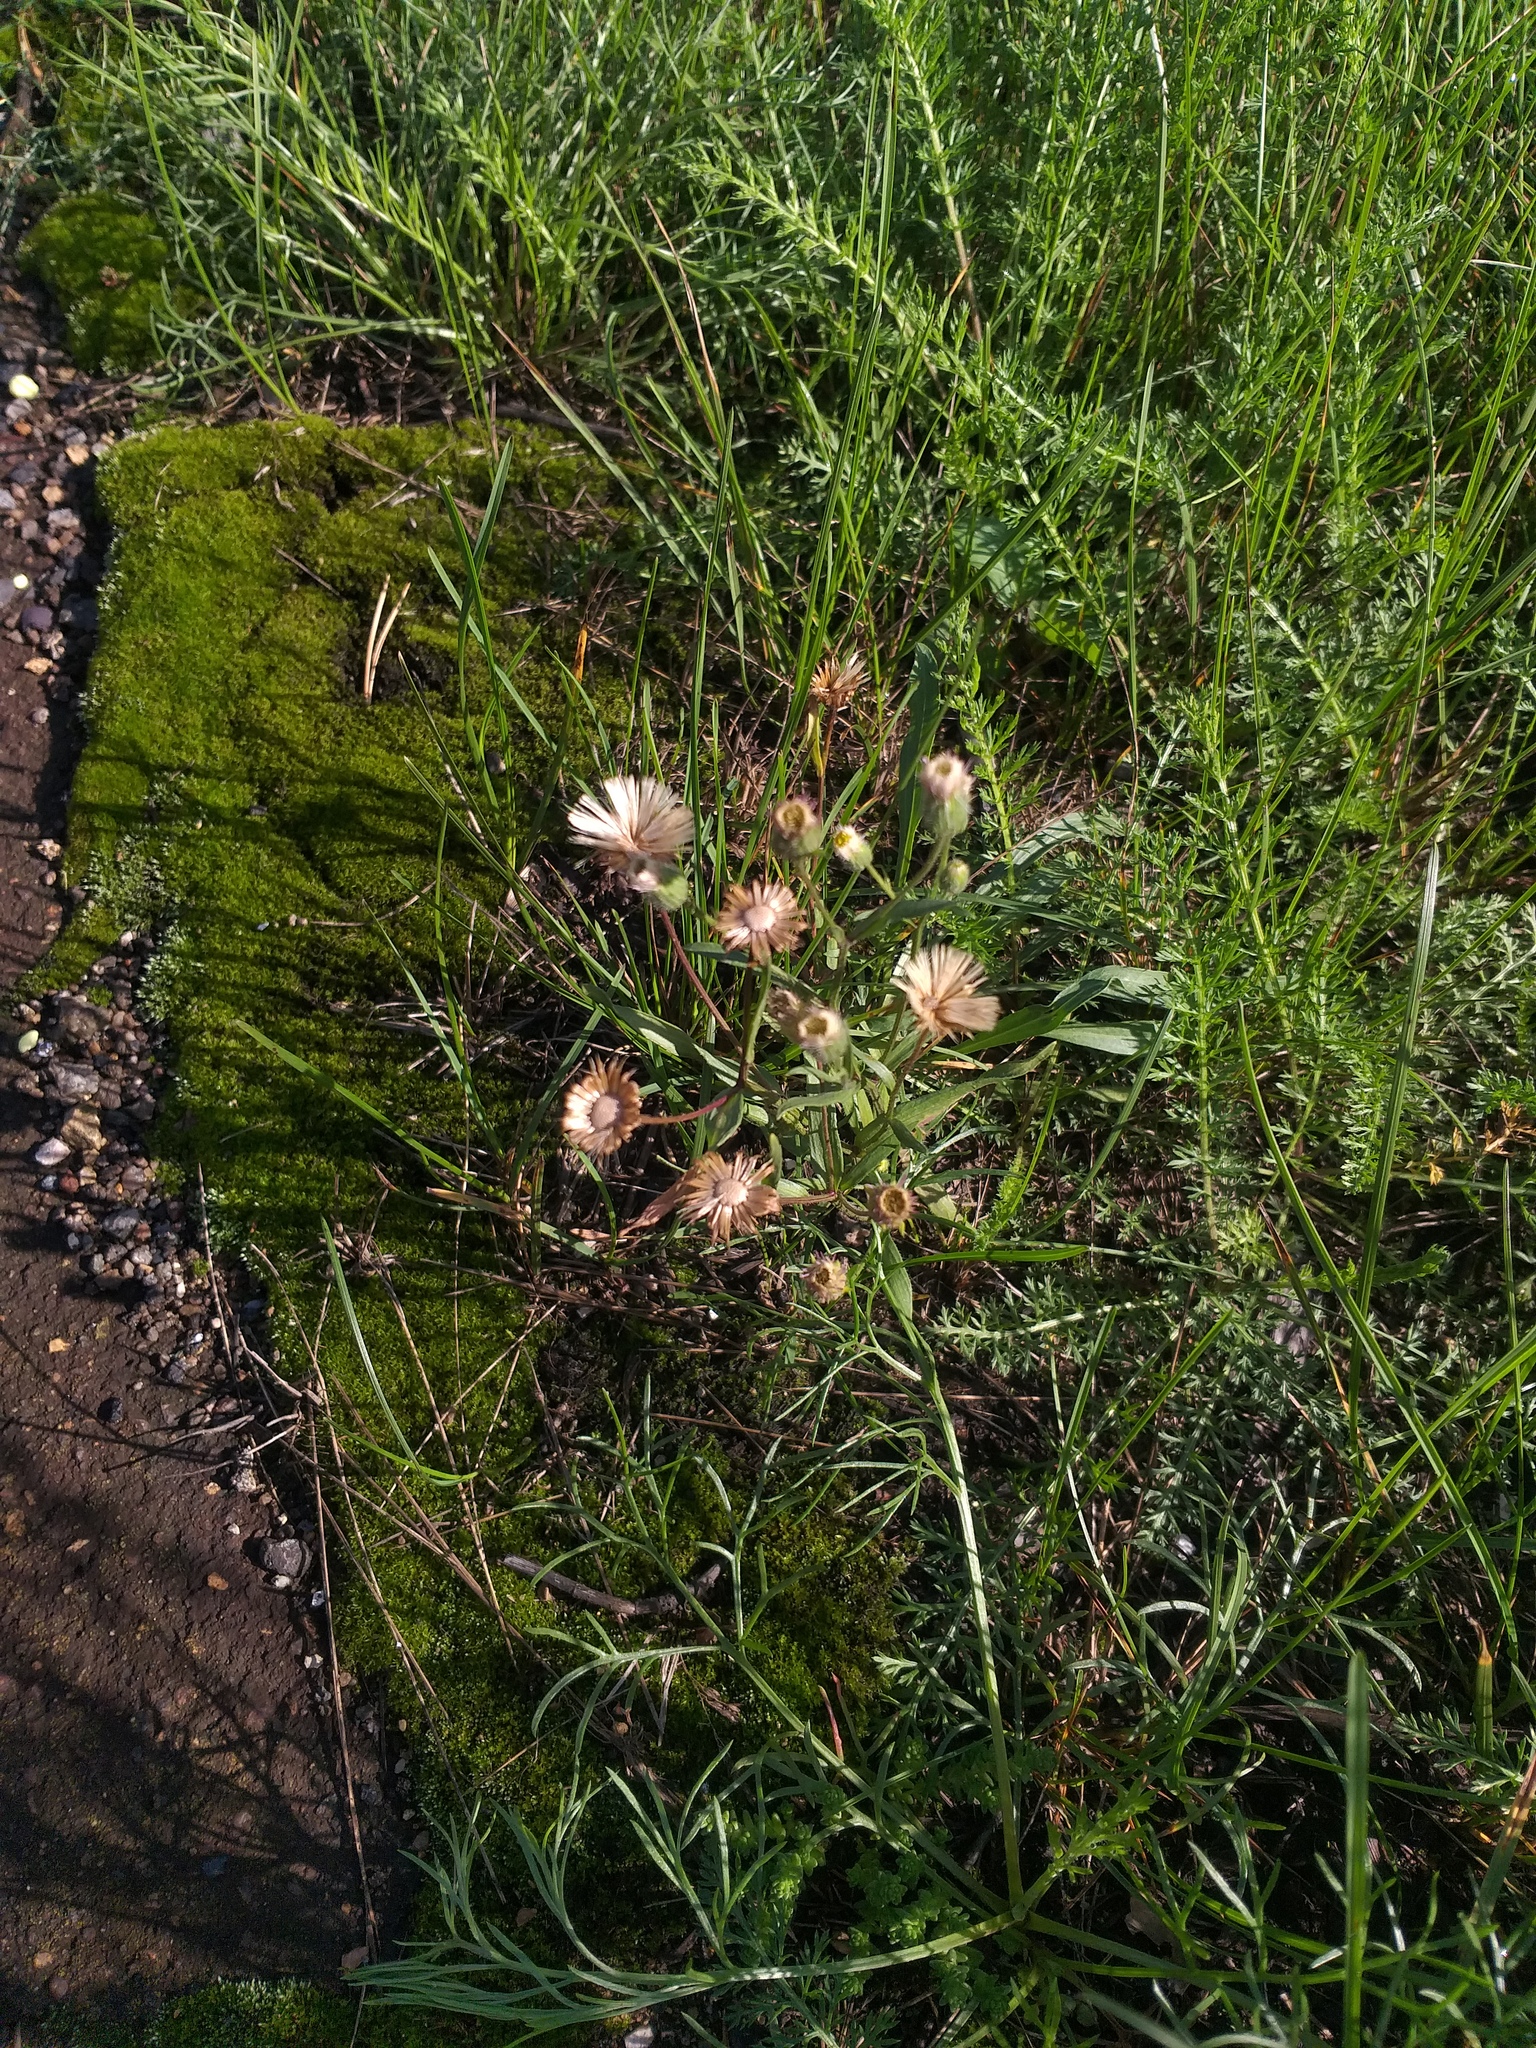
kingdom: Plantae
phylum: Tracheophyta
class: Magnoliopsida
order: Asterales
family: Asteraceae
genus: Erigeron
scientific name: Erigeron acris
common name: Blue fleabane
